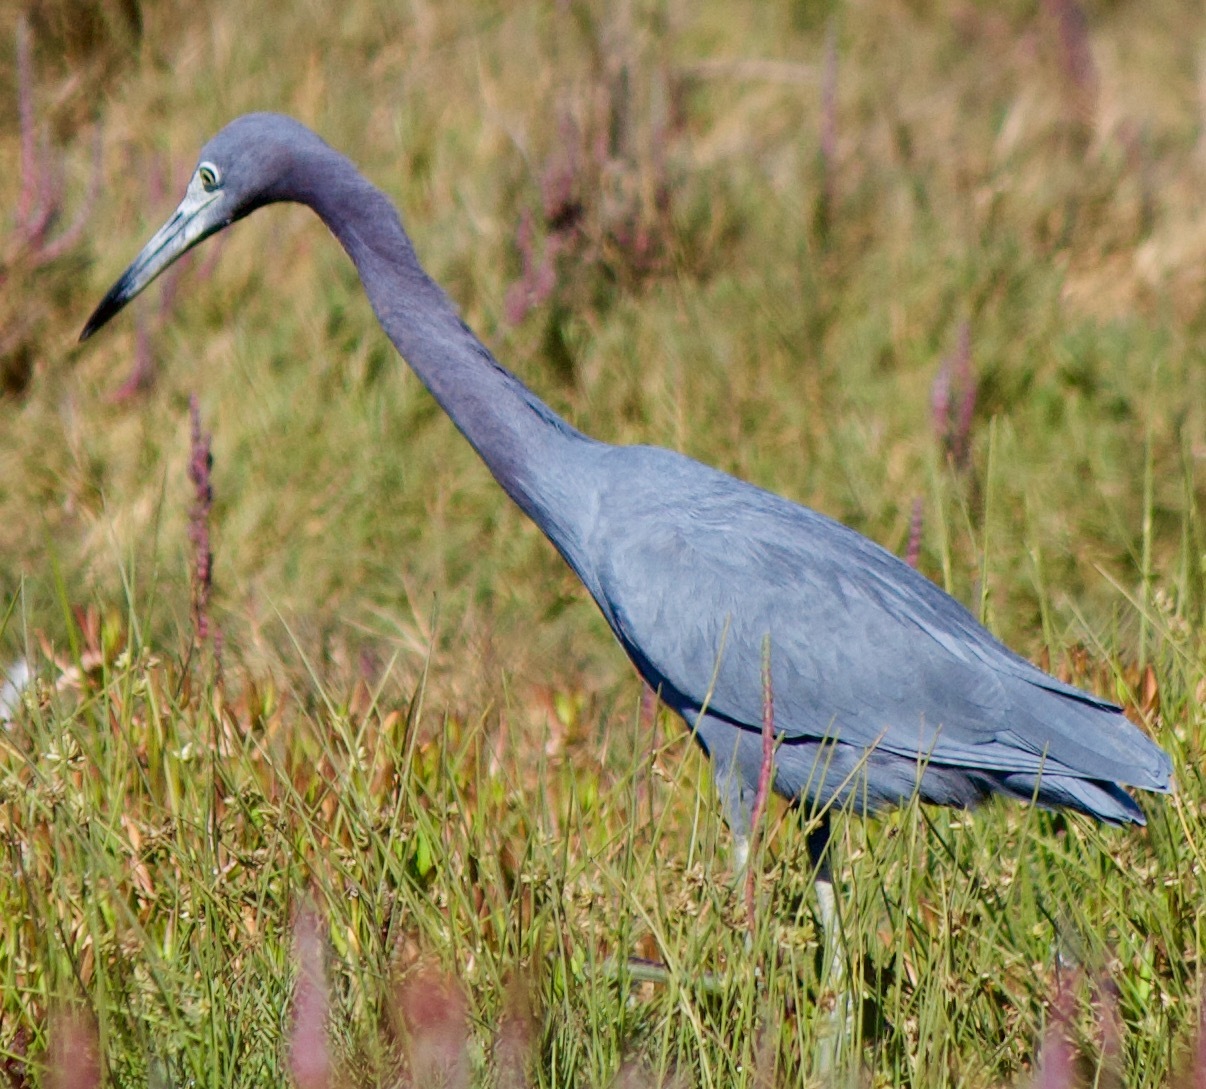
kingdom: Animalia
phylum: Chordata
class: Aves
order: Pelecaniformes
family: Ardeidae
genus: Egretta
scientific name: Egretta caerulea
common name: Little blue heron
